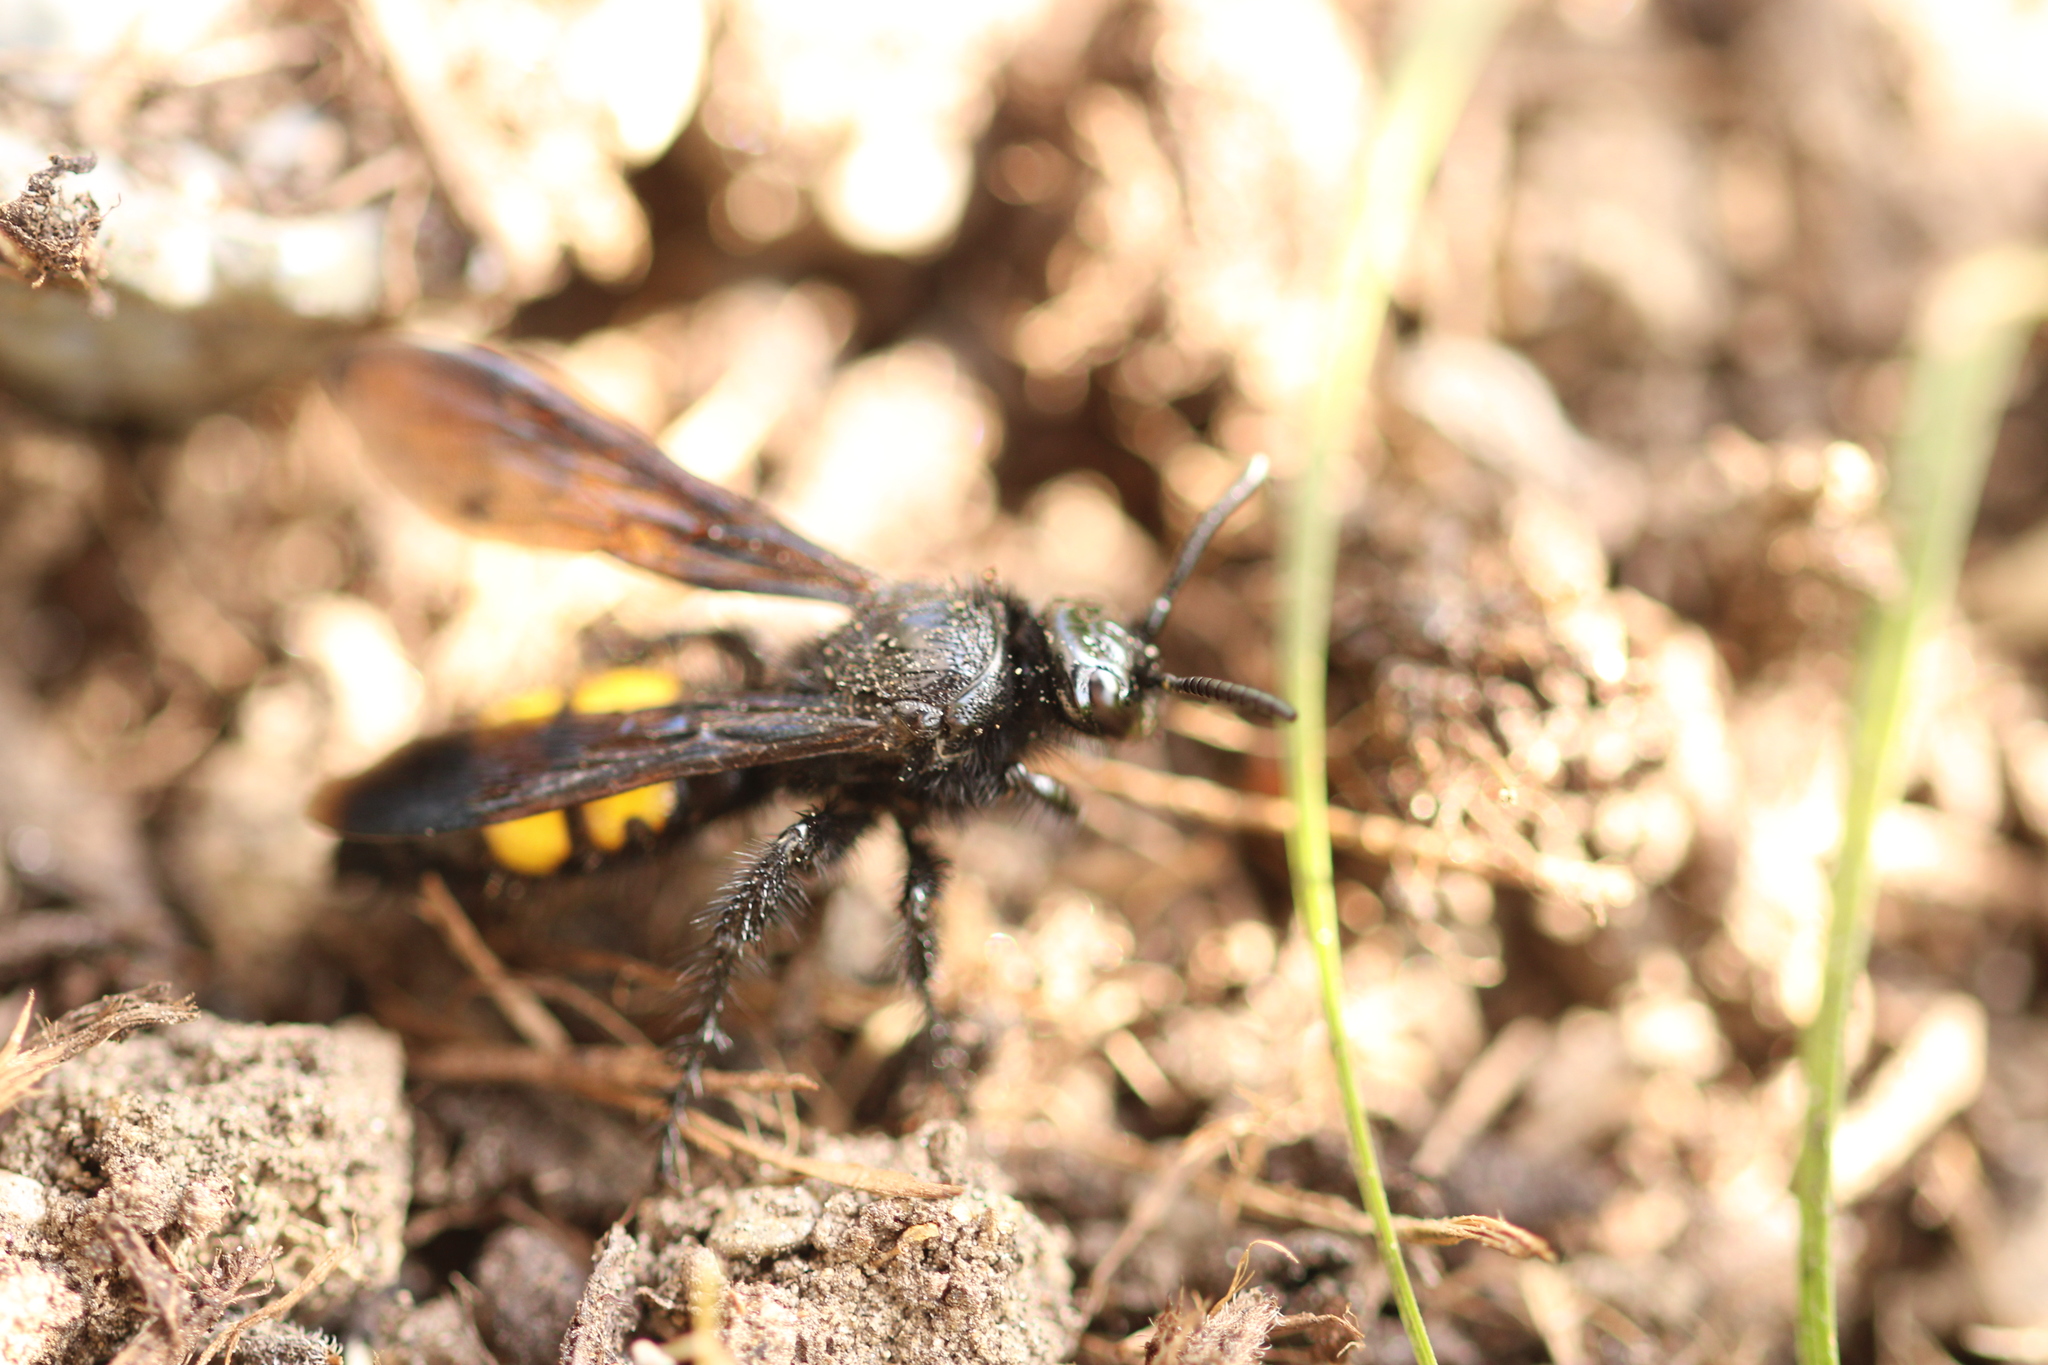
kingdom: Animalia
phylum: Arthropoda
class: Insecta
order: Hymenoptera
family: Scoliidae
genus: Scolia
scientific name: Scolia hirta
